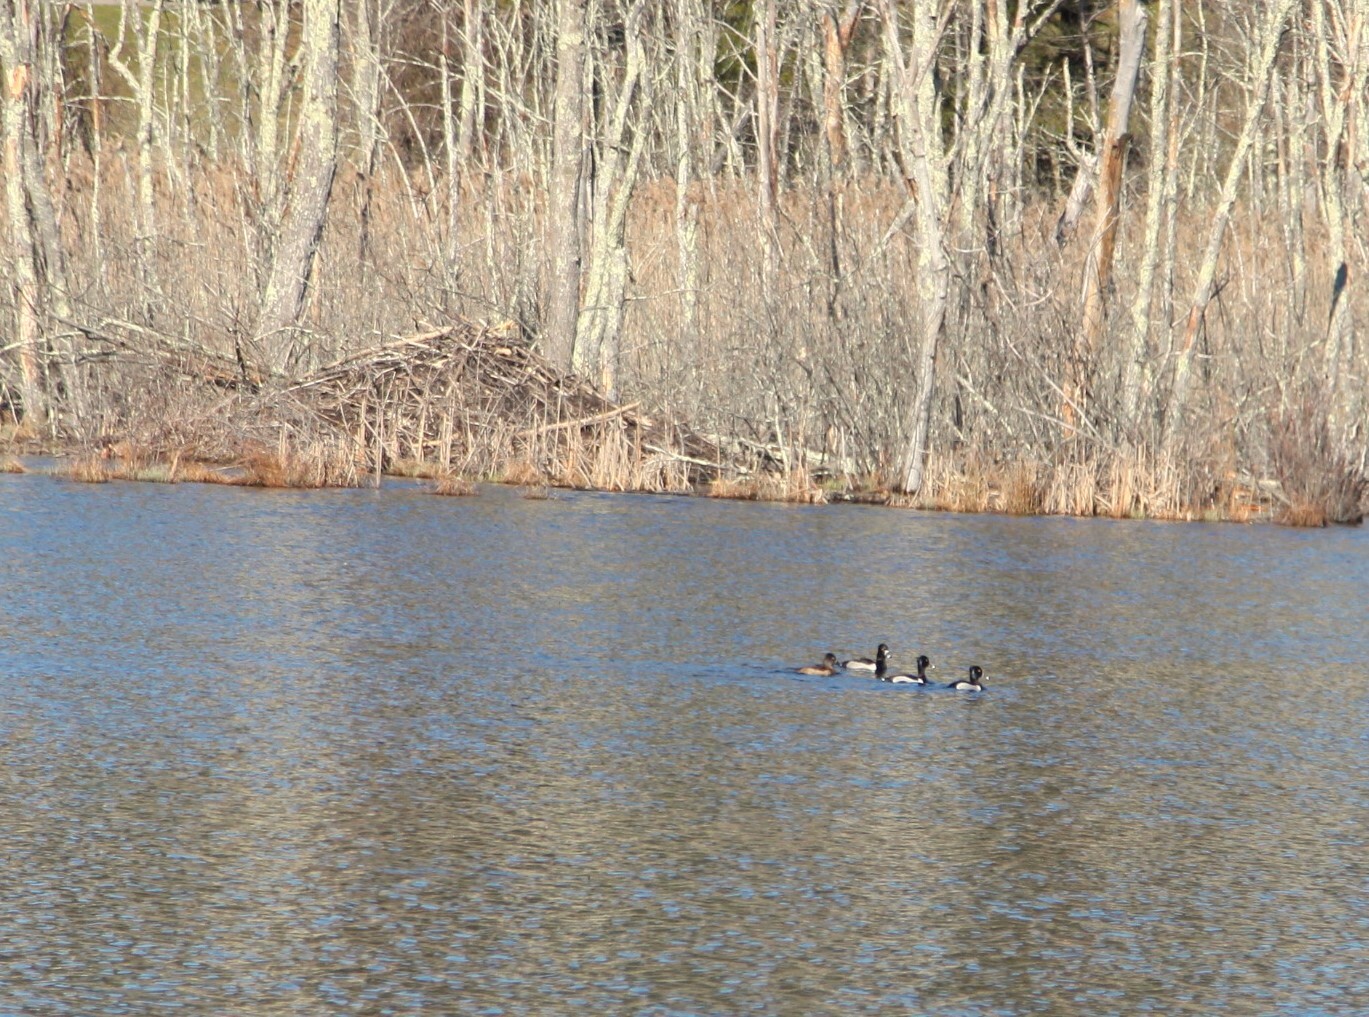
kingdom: Animalia
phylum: Chordata
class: Aves
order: Anseriformes
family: Anatidae
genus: Aythya
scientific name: Aythya collaris
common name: Ring-necked duck
